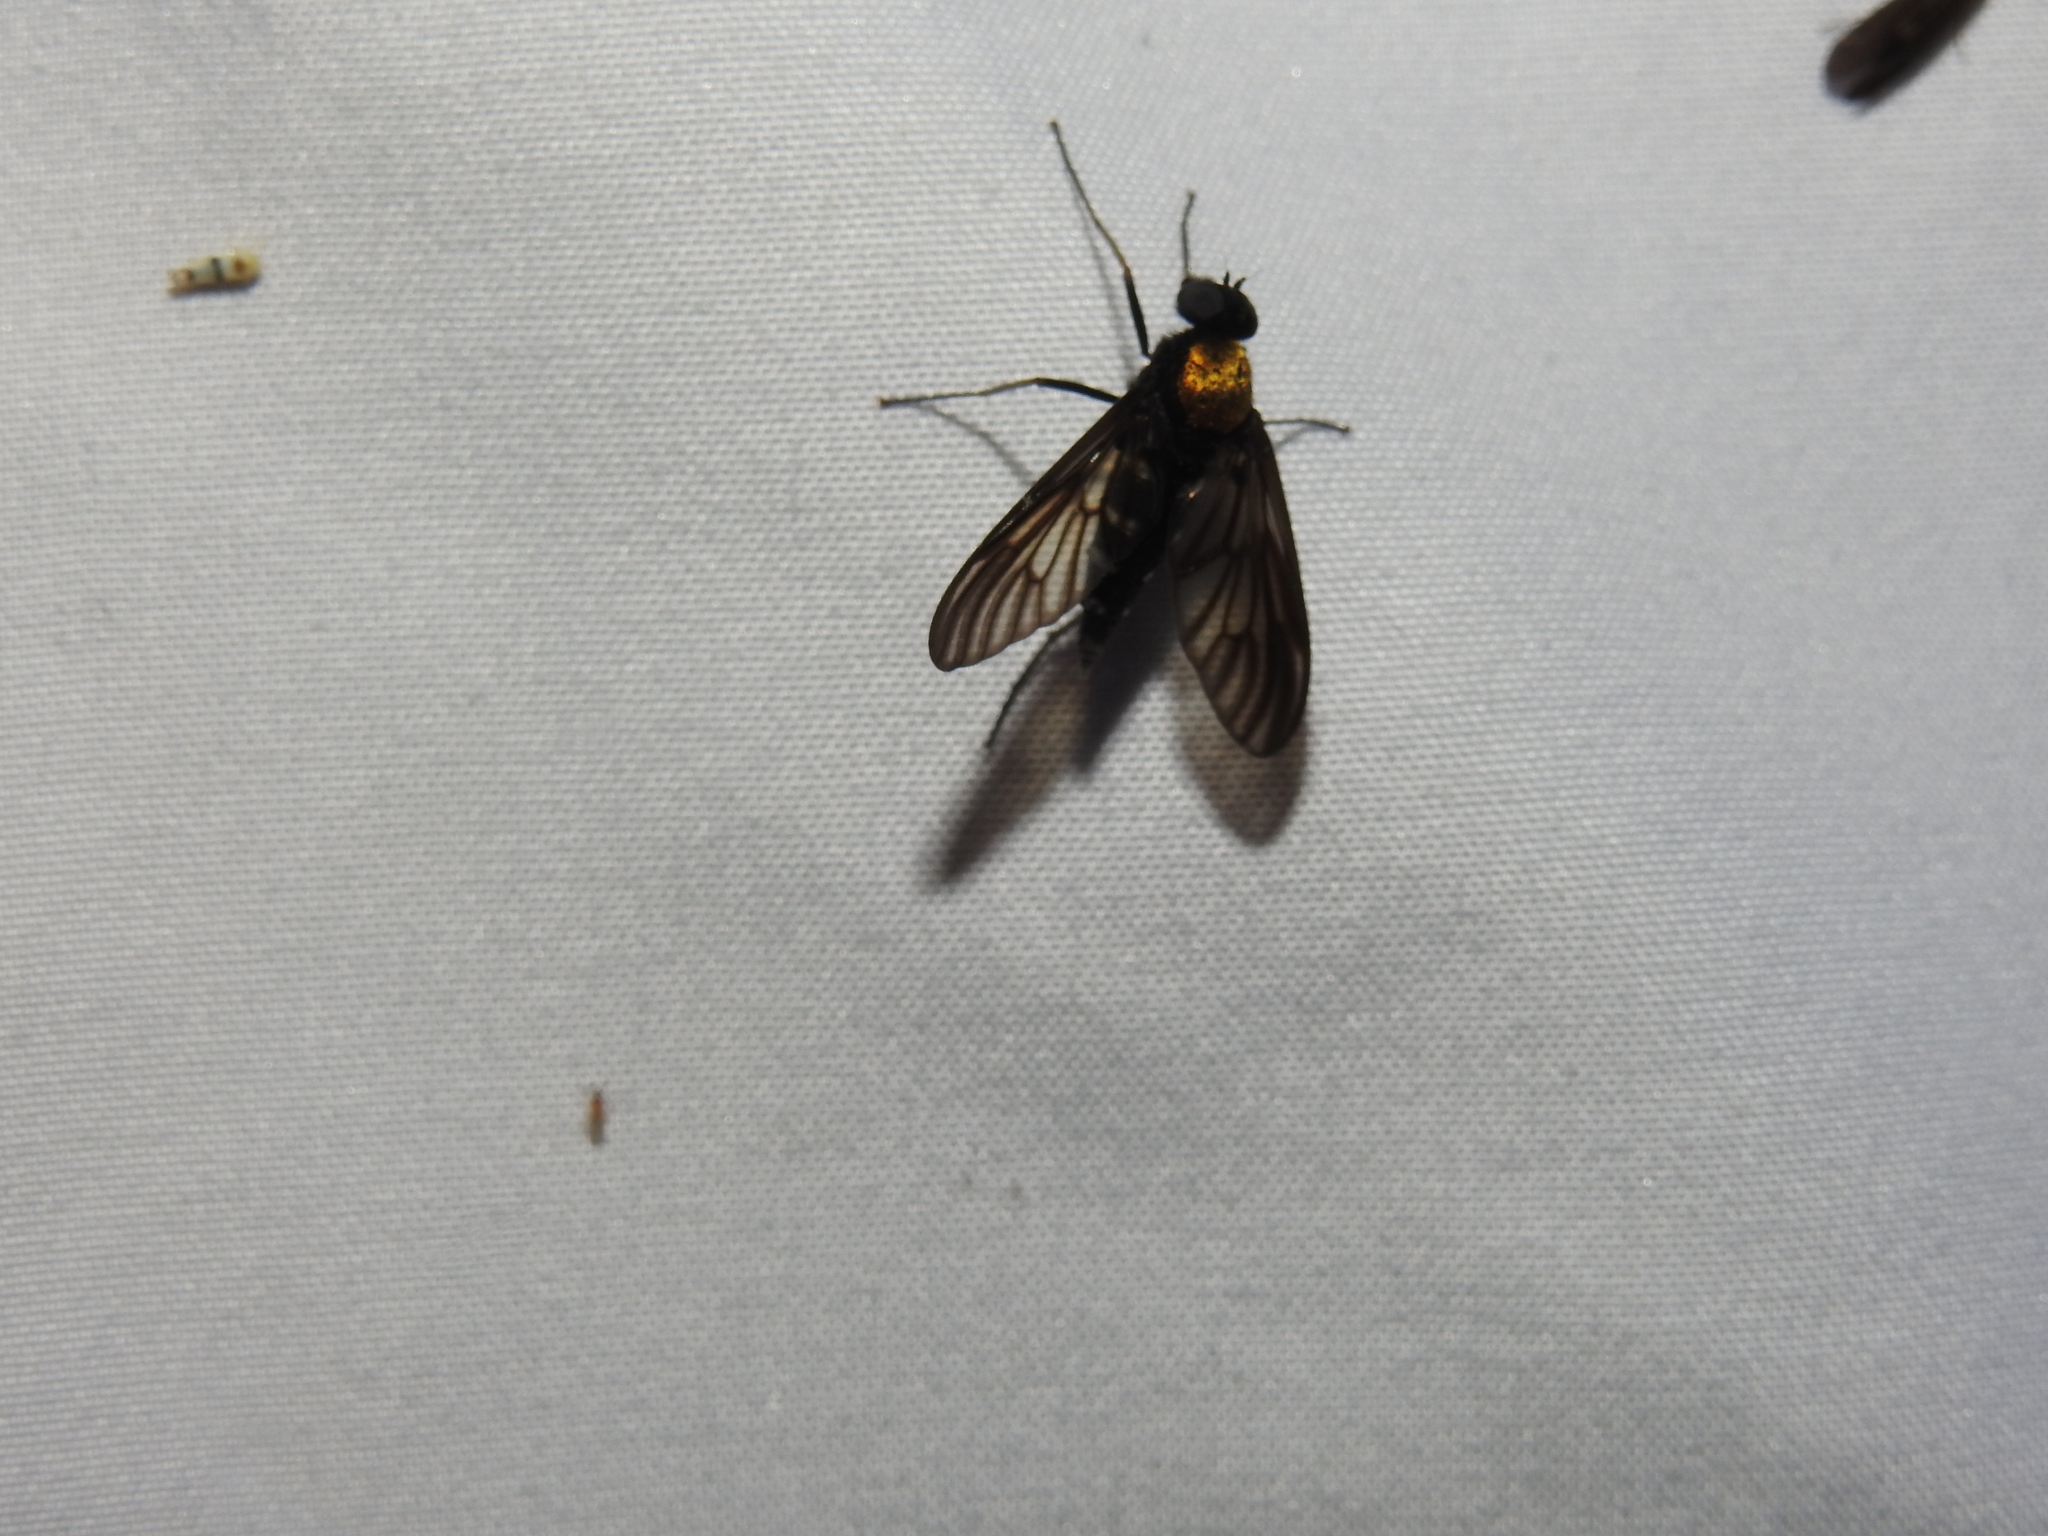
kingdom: Animalia
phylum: Arthropoda
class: Insecta
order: Diptera
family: Rhagionidae
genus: Chrysopilus
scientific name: Chrysopilus thoracicus
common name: Golden-backed snipe fly
